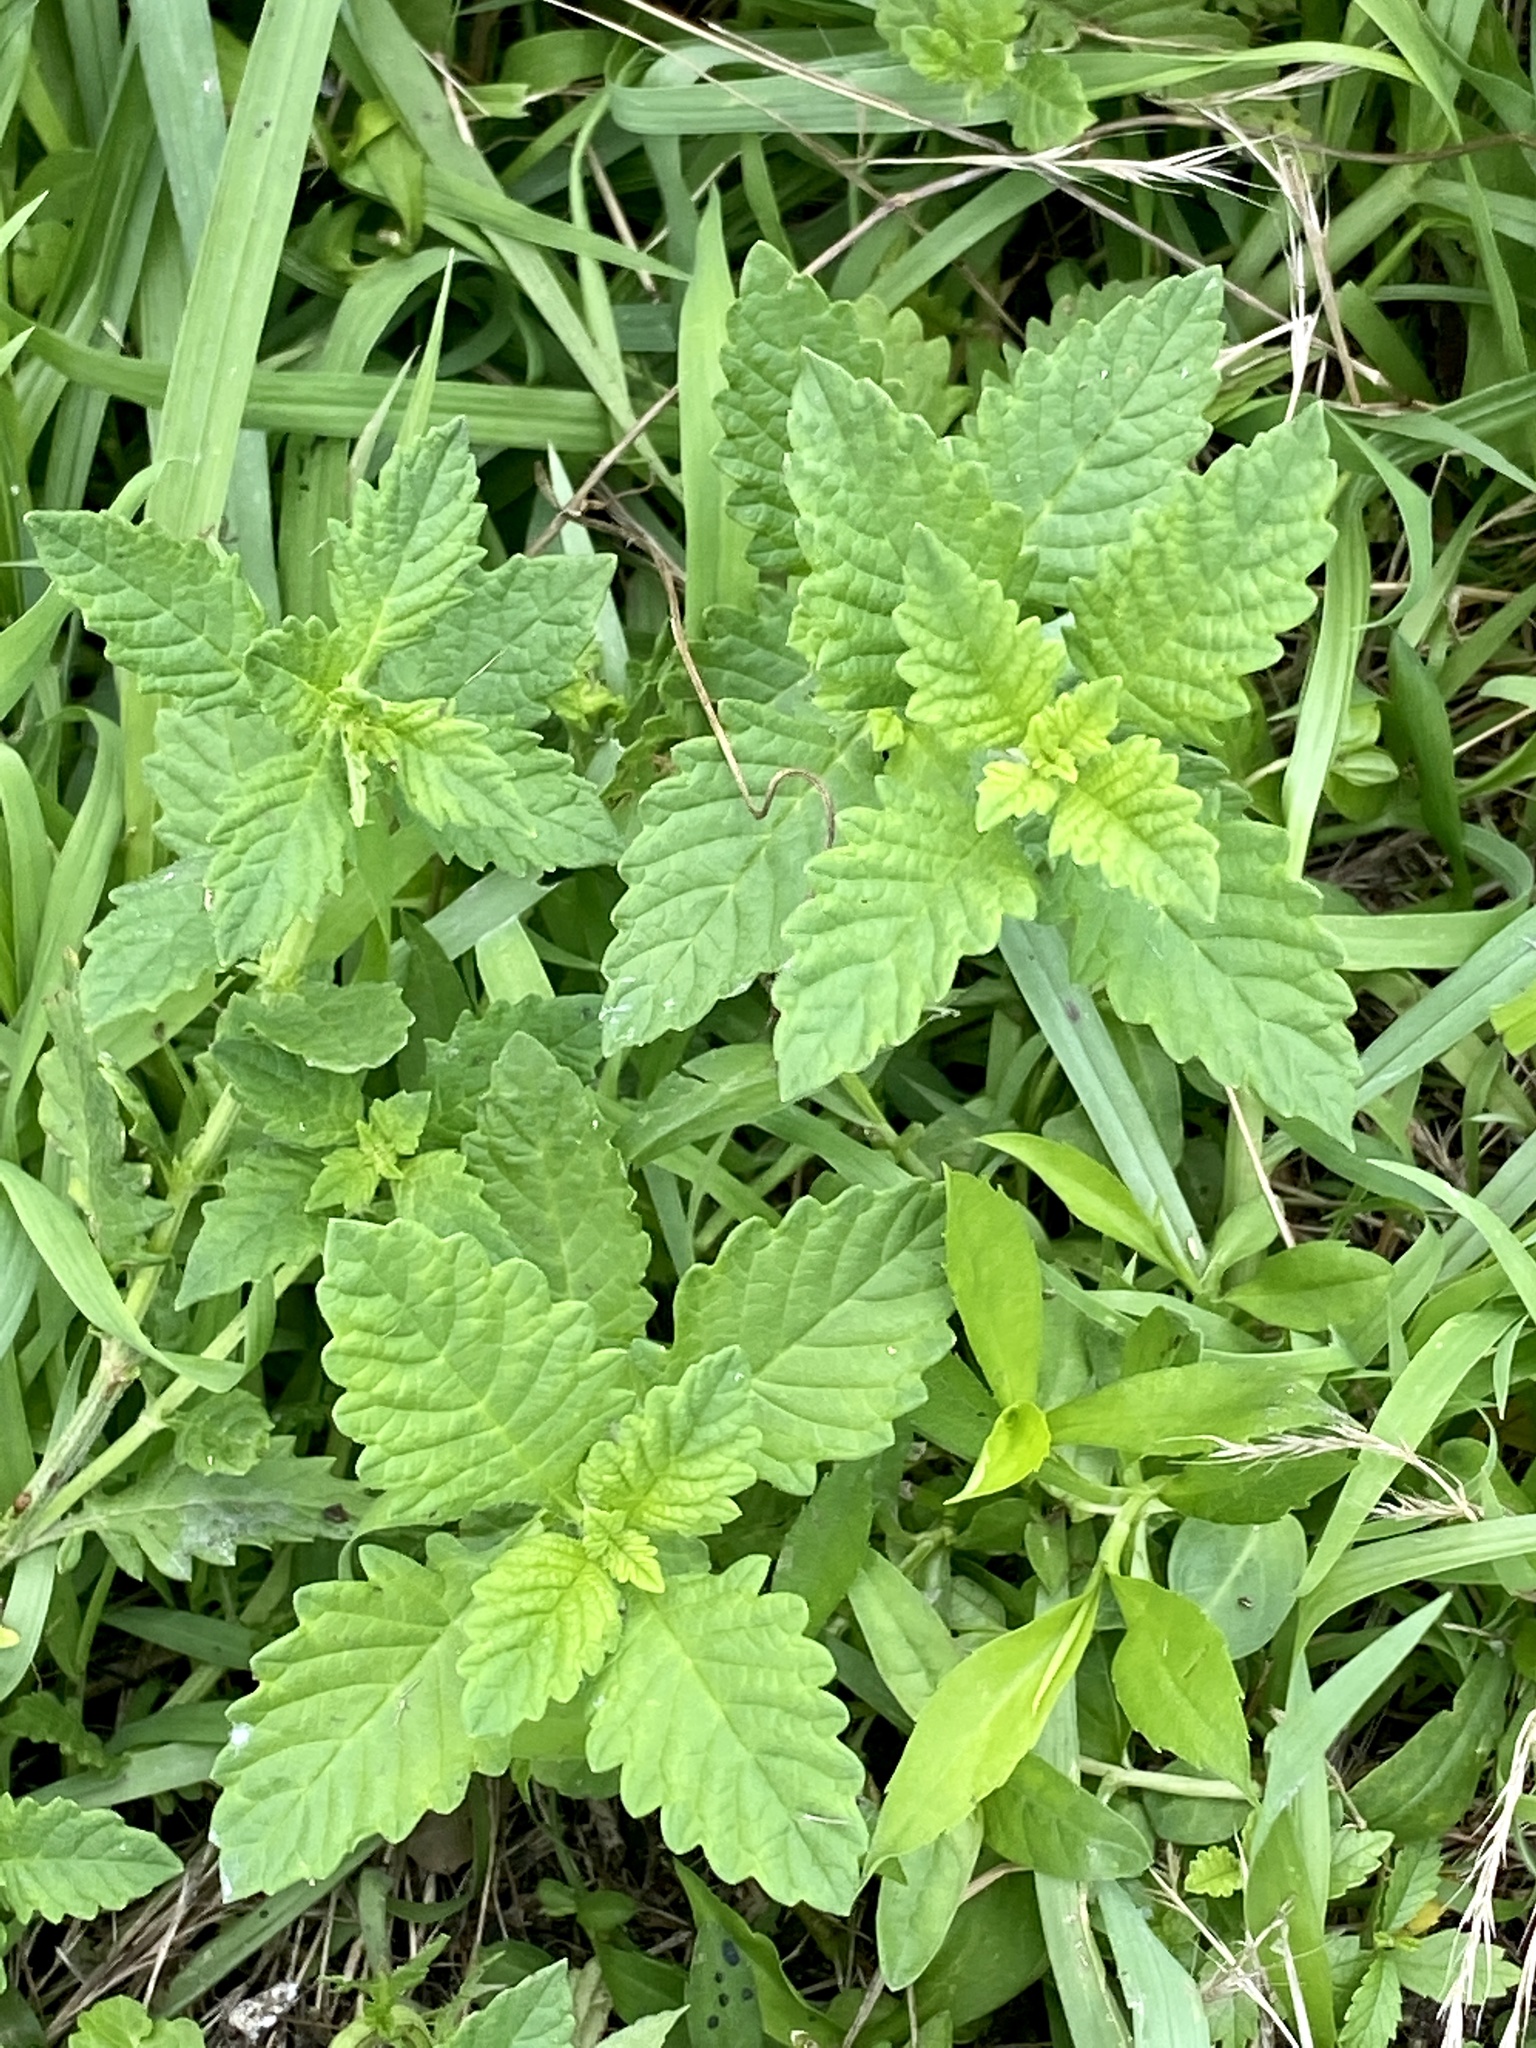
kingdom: Plantae
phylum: Tracheophyta
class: Magnoliopsida
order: Lamiales
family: Lamiaceae
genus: Lycopus
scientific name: Lycopus europaeus
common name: European bugleweed
